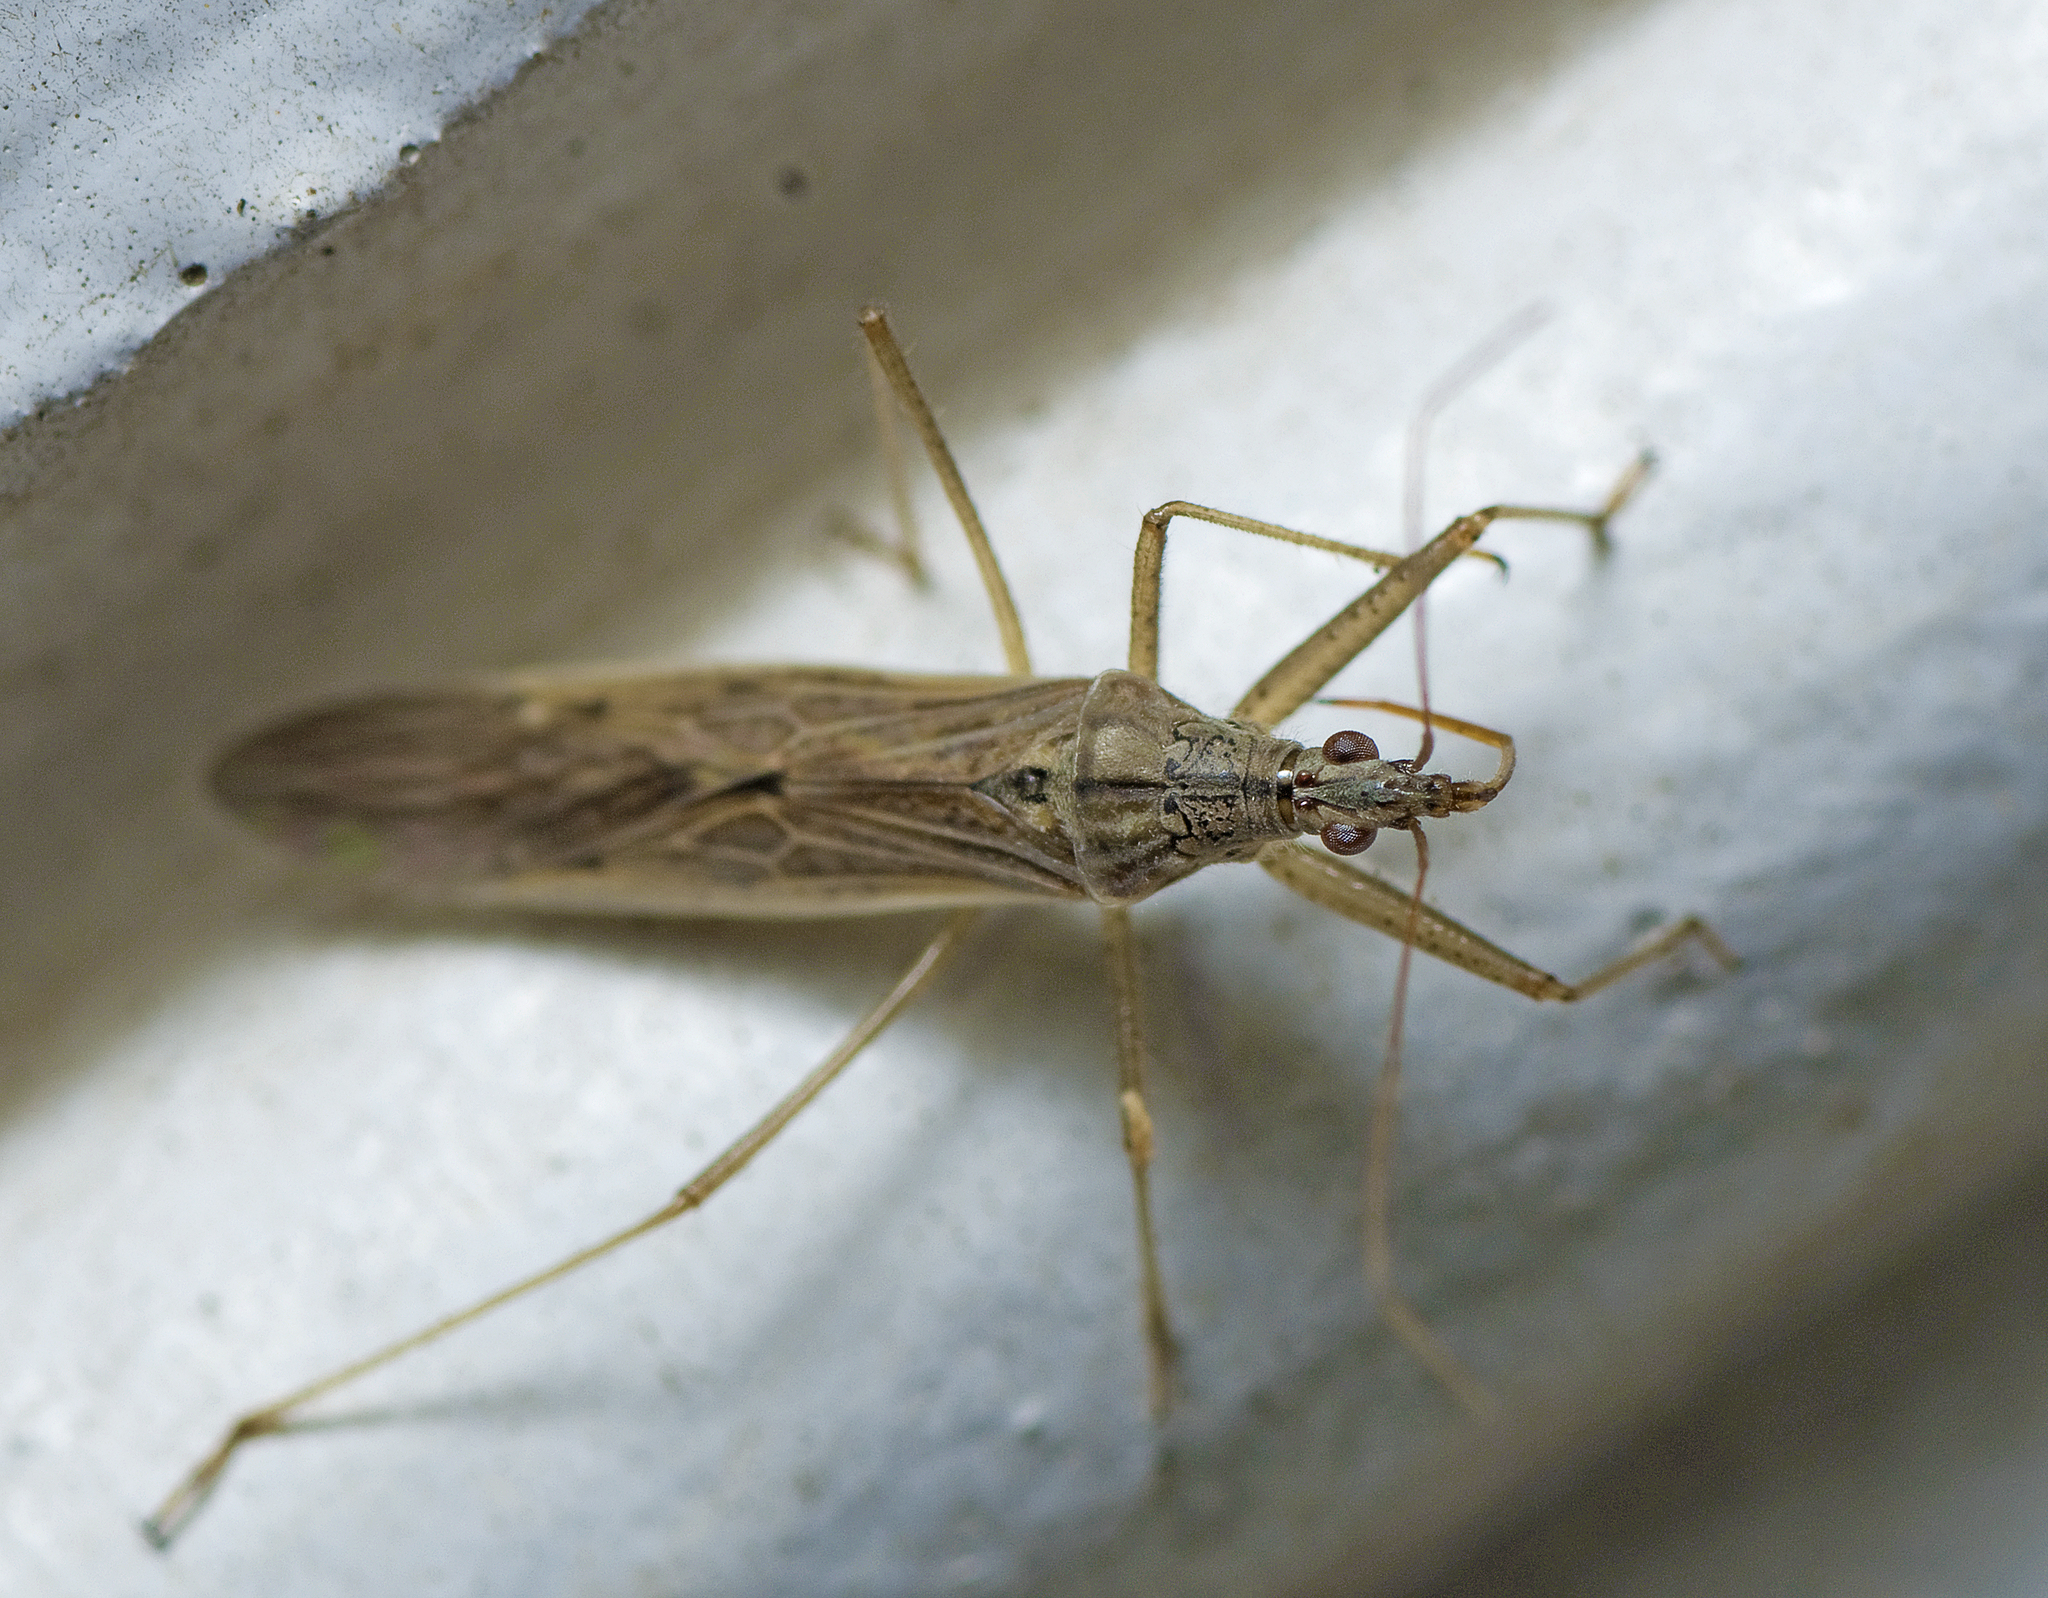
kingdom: Animalia
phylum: Arthropoda
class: Insecta
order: Hemiptera
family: Nabidae
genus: Nabis
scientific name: Nabis kinbergii
